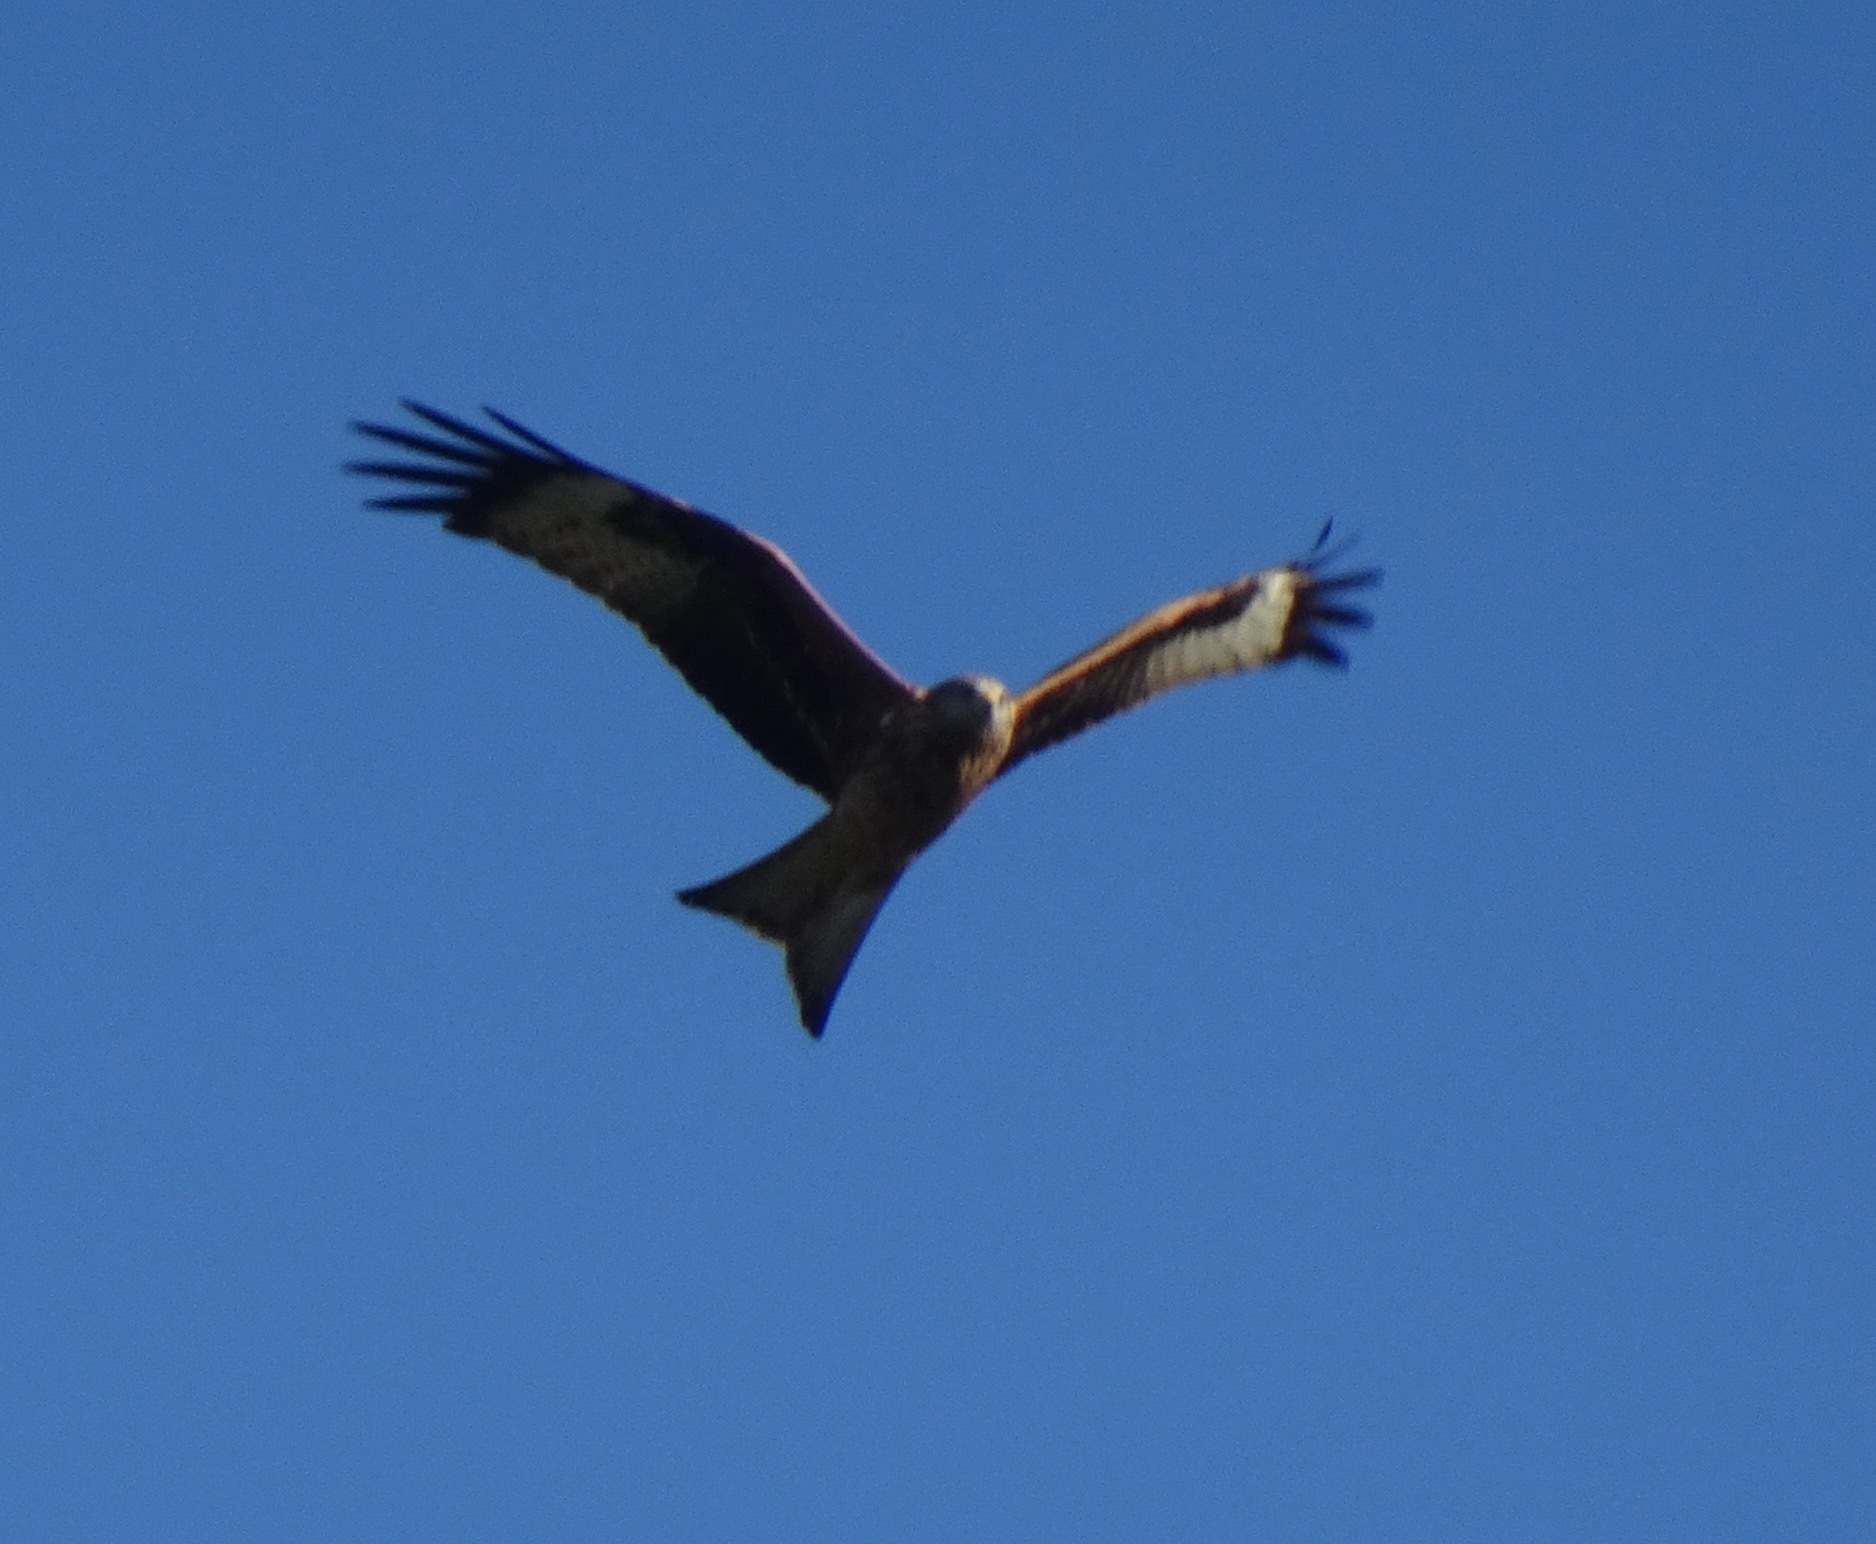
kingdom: Animalia
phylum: Chordata
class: Aves
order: Accipitriformes
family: Accipitridae
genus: Milvus
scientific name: Milvus milvus
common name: Red kite
